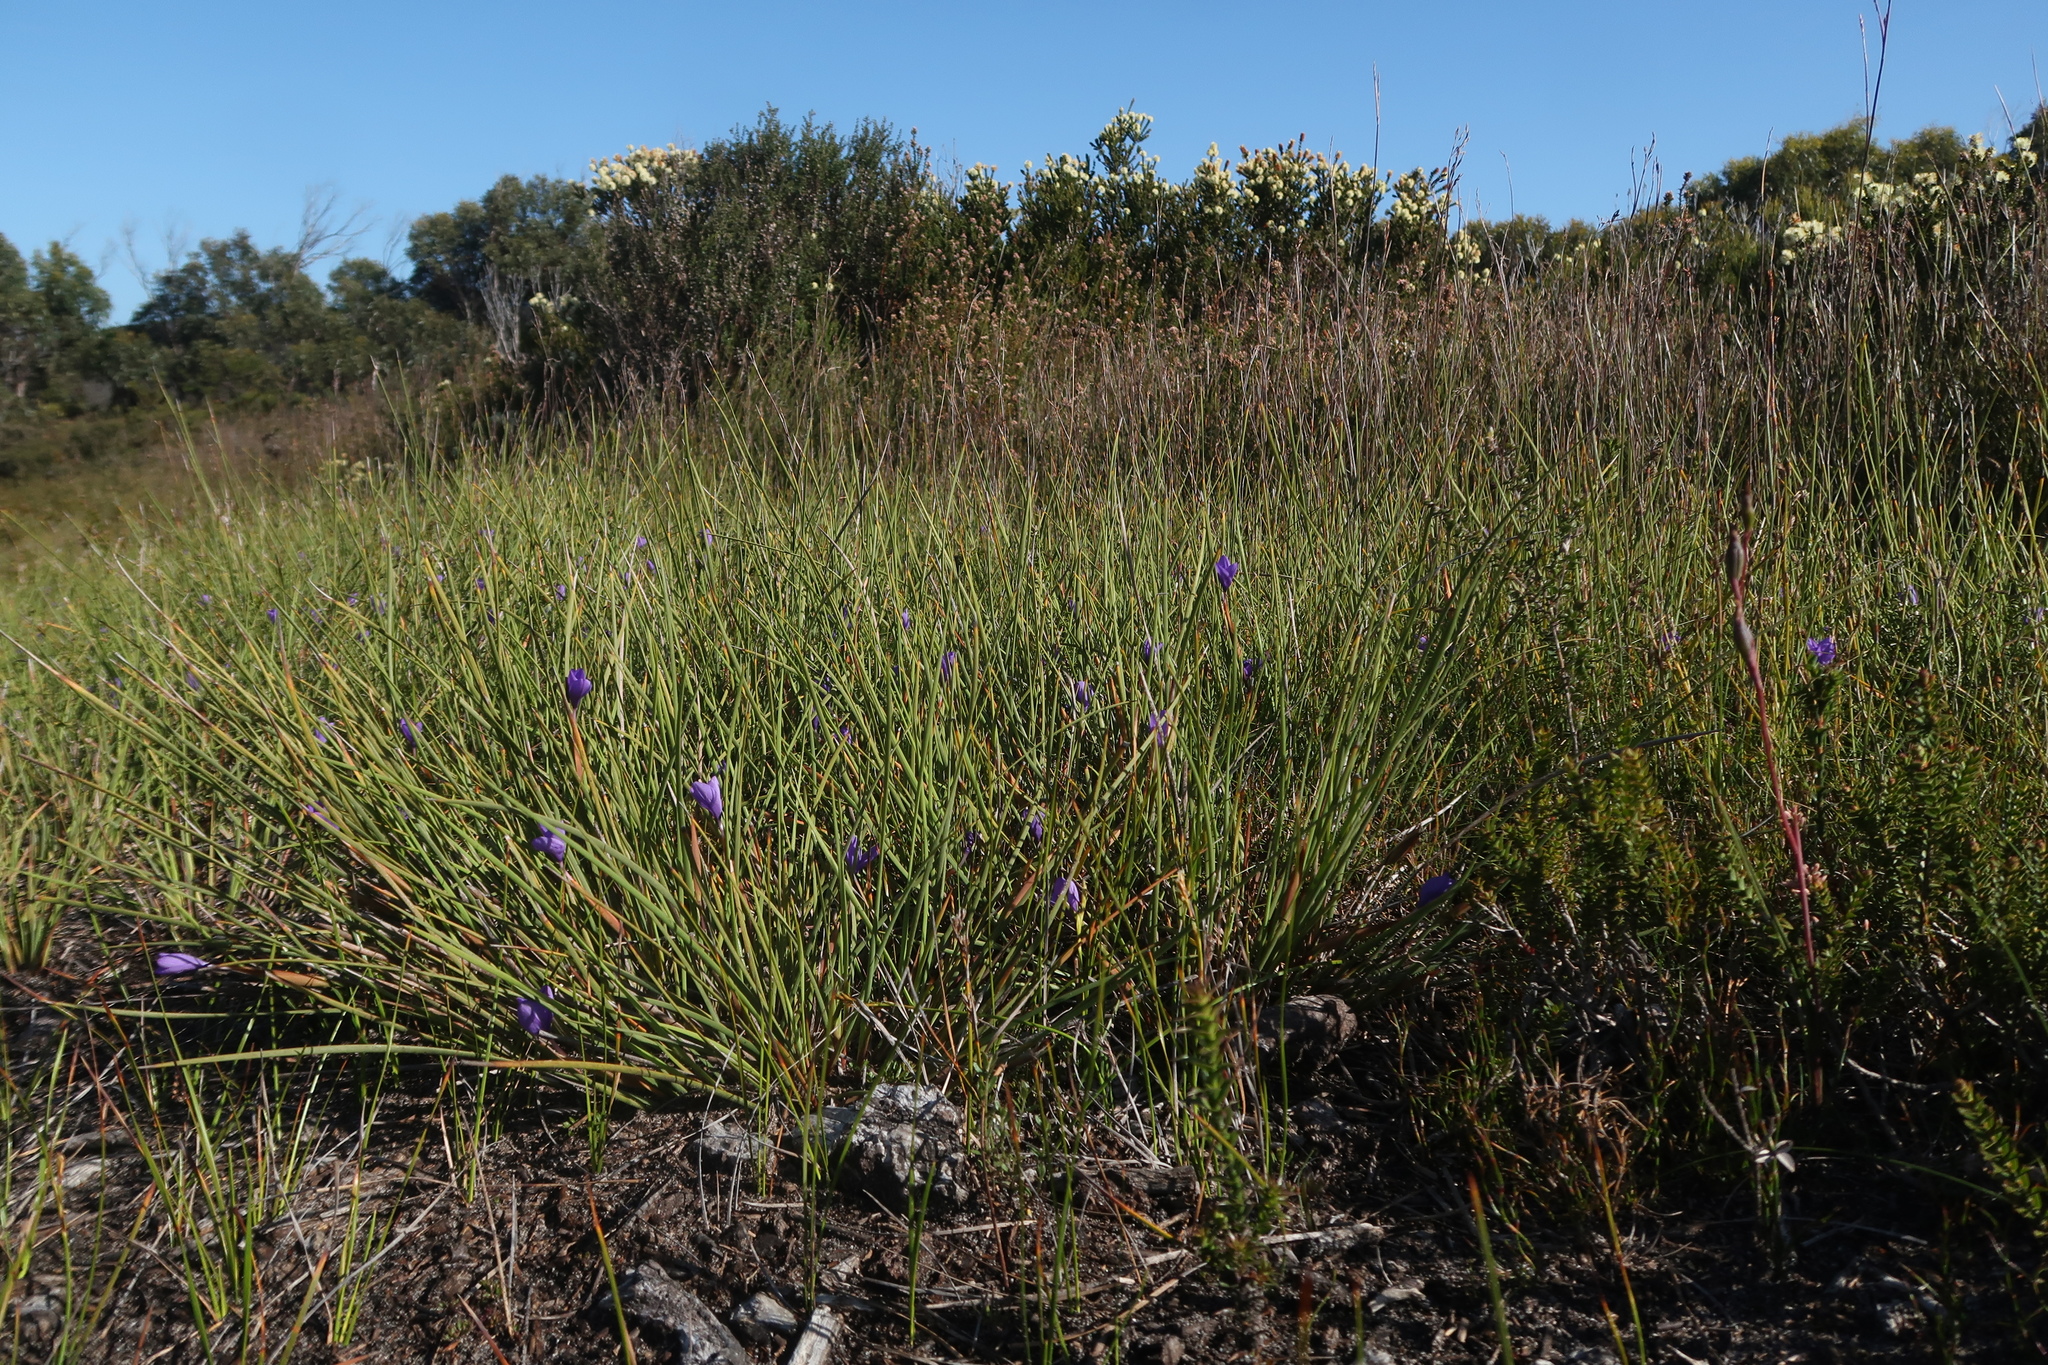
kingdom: Plantae
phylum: Tracheophyta
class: Liliopsida
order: Asparagales
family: Iridaceae
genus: Patersonia
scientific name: Patersonia fragilis
